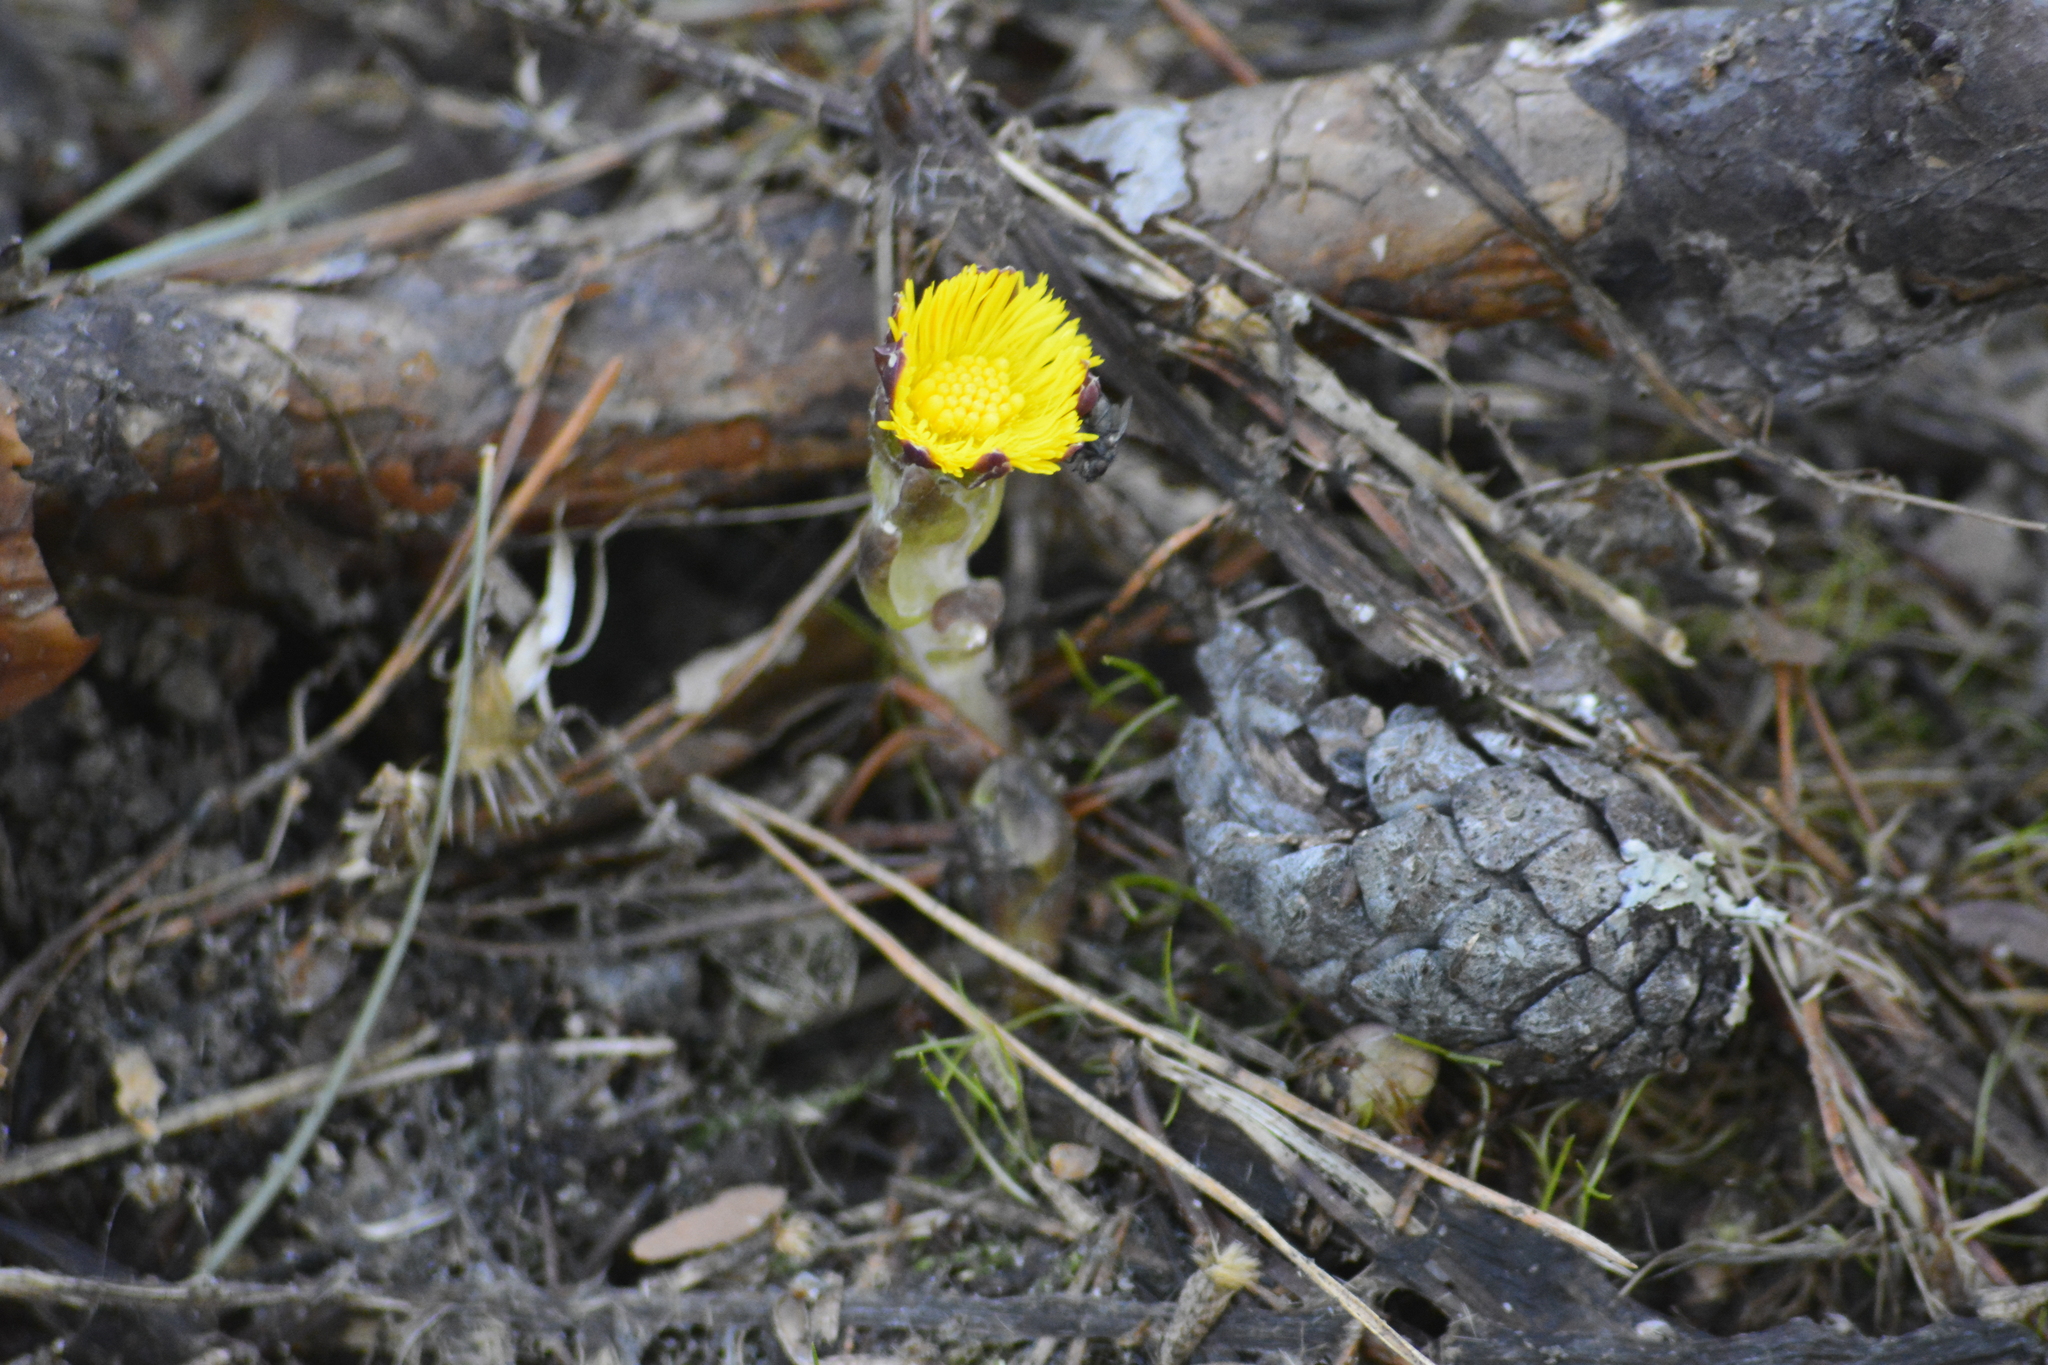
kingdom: Plantae
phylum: Tracheophyta
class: Magnoliopsida
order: Asterales
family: Asteraceae
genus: Tussilago
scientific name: Tussilago farfara
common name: Coltsfoot
